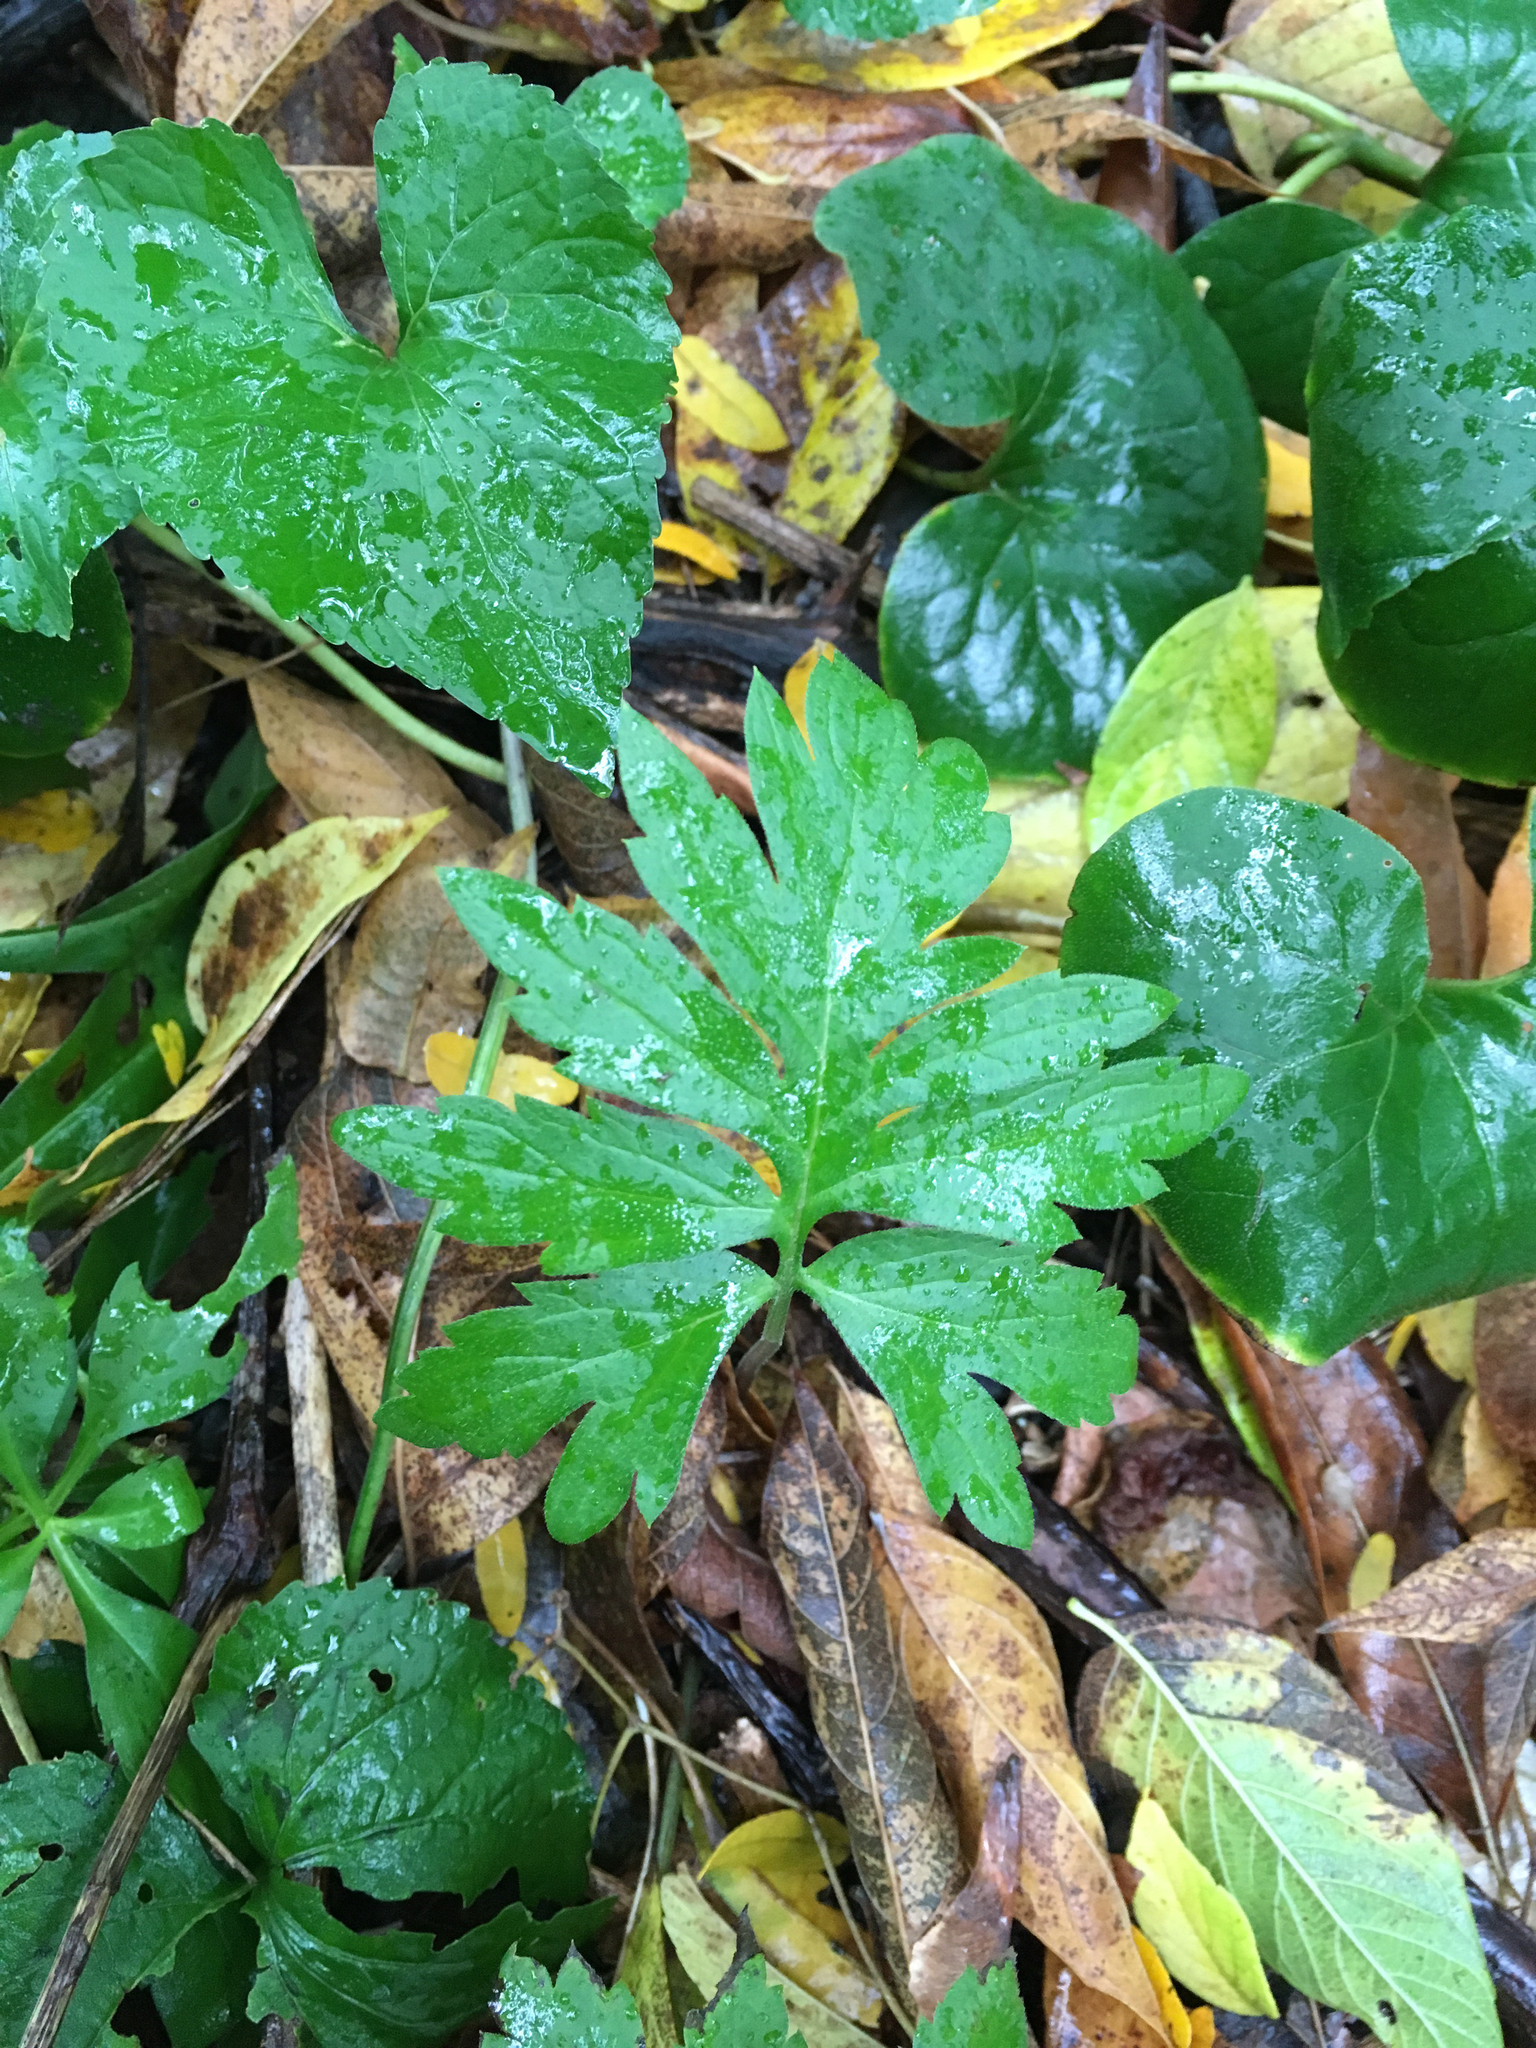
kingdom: Plantae
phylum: Tracheophyta
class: Magnoliopsida
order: Boraginales
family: Hydrophyllaceae
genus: Hydrophyllum
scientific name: Hydrophyllum virginianum
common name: Virginia waterleaf
